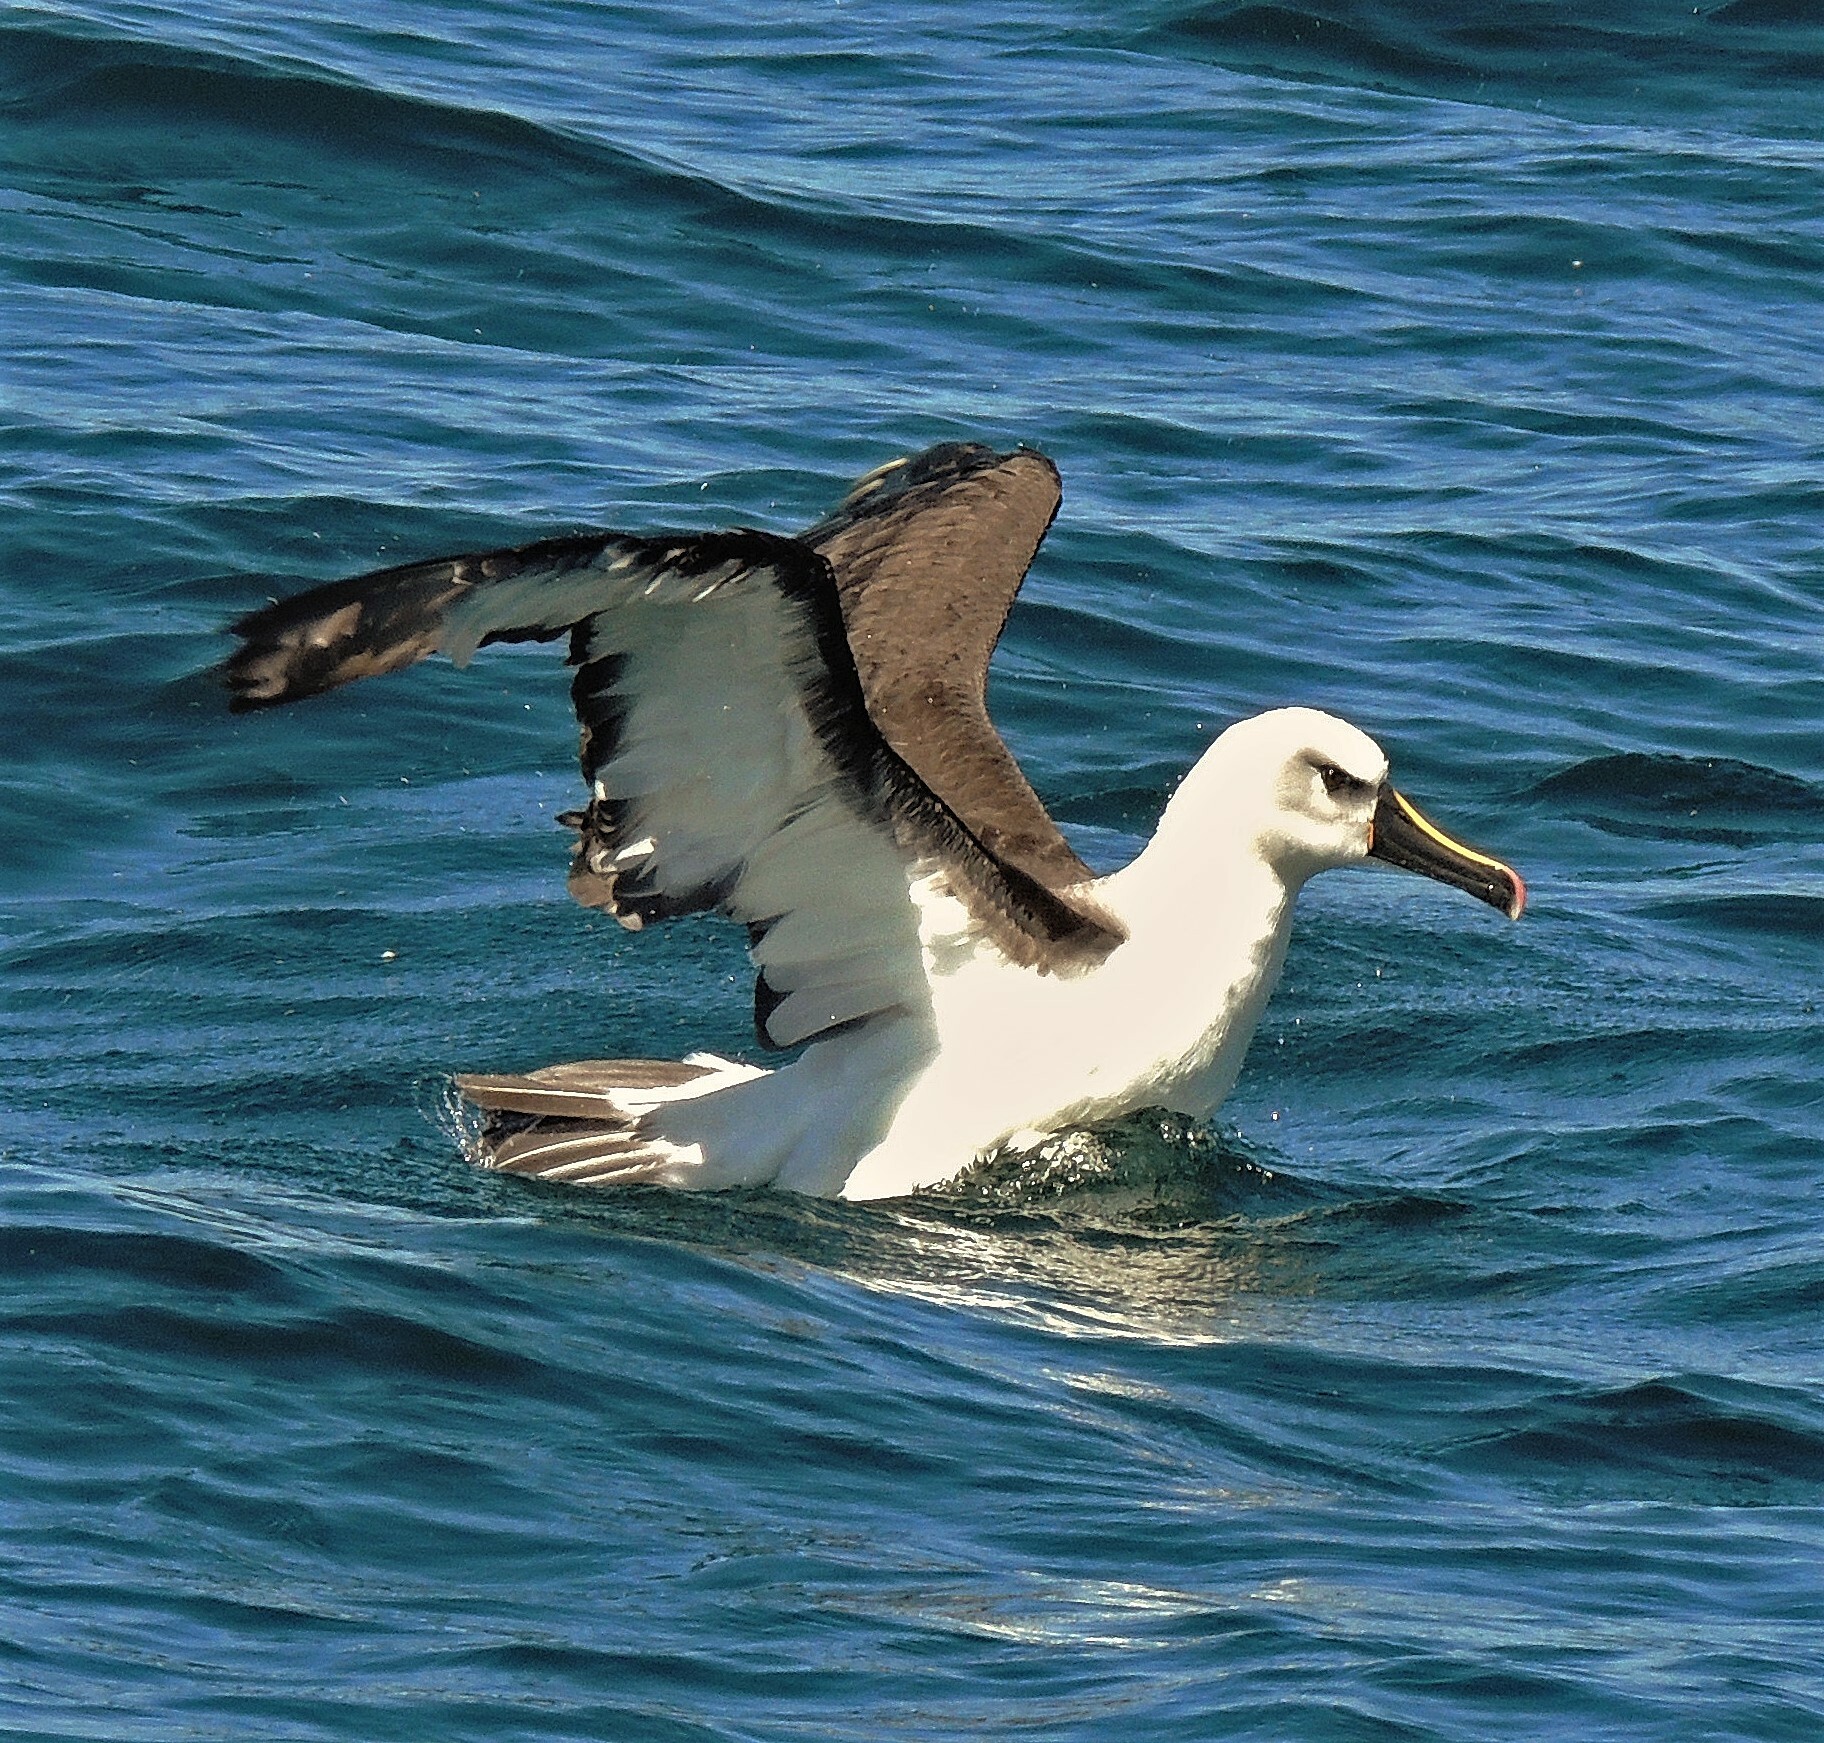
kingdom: Animalia
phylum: Chordata
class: Aves
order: Procellariiformes
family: Diomedeidae
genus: Thalassarche
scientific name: Thalassarche chlororhynchos
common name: Atlantic yellow-nosed albatross
